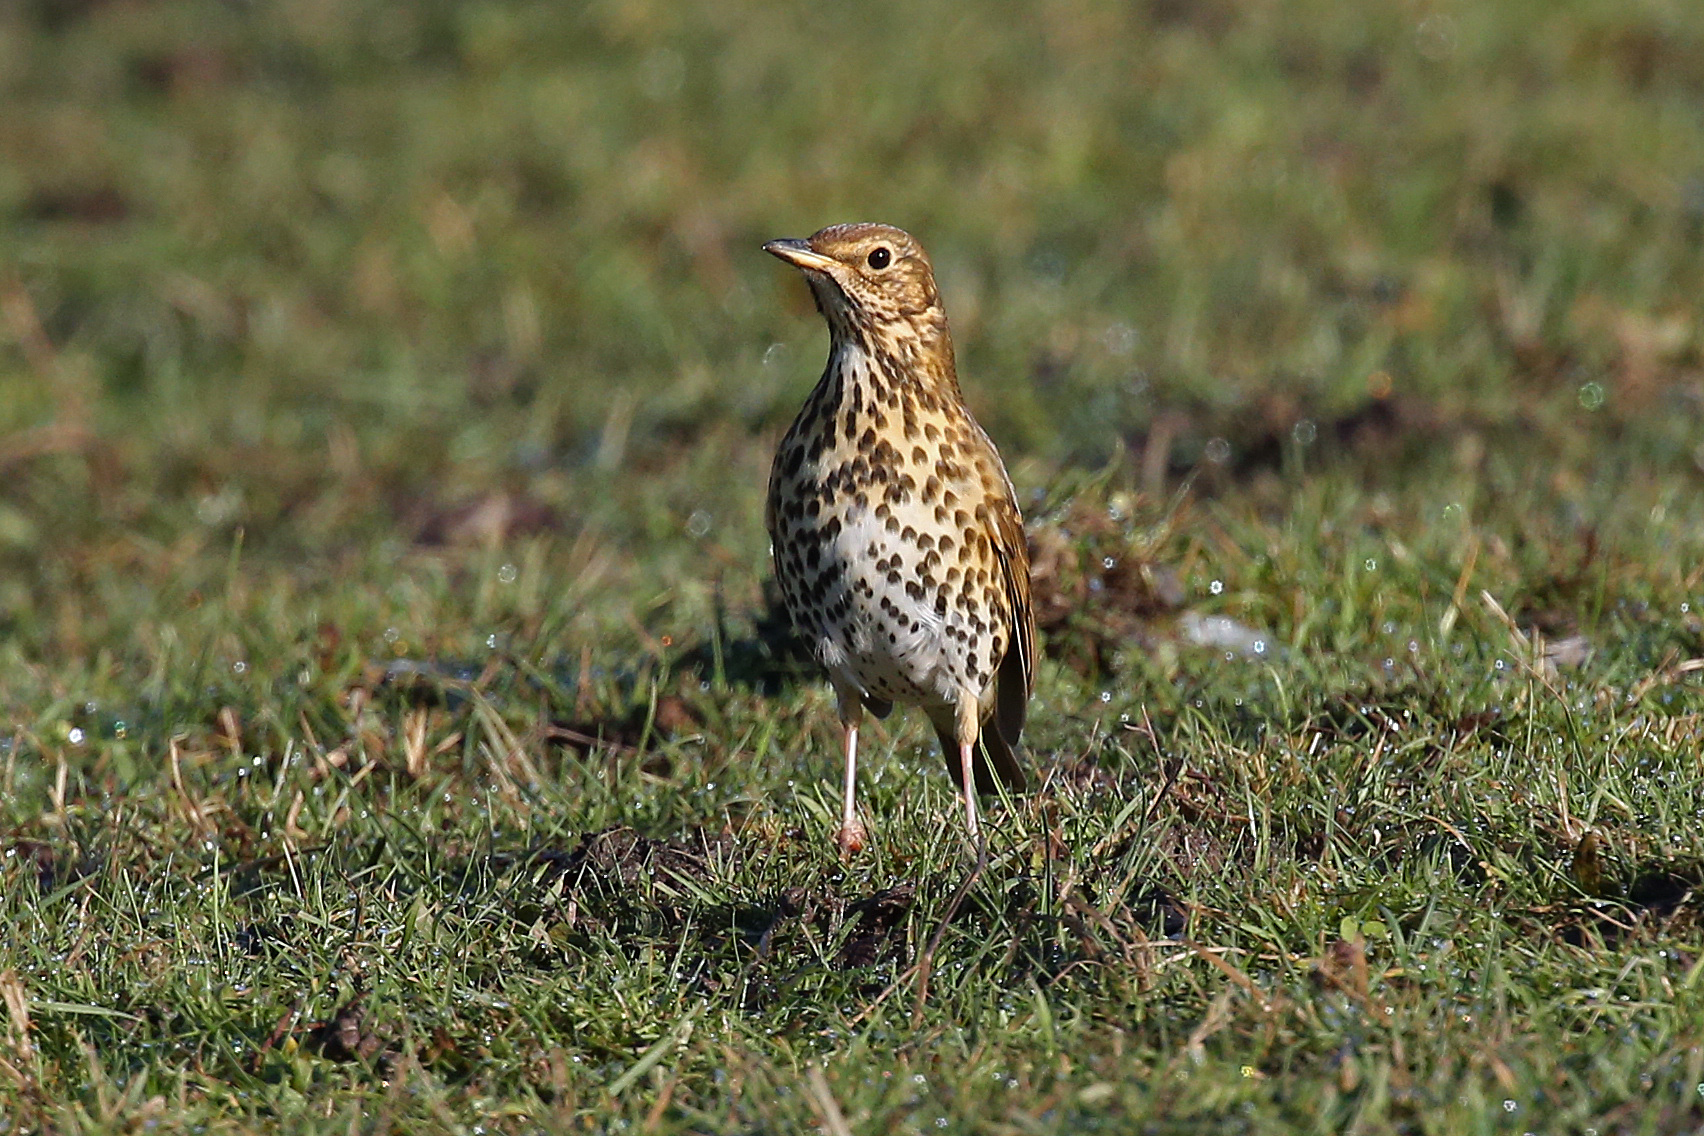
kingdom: Animalia
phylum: Chordata
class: Aves
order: Passeriformes
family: Turdidae
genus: Turdus
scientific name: Turdus philomelos
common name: Song thrush
